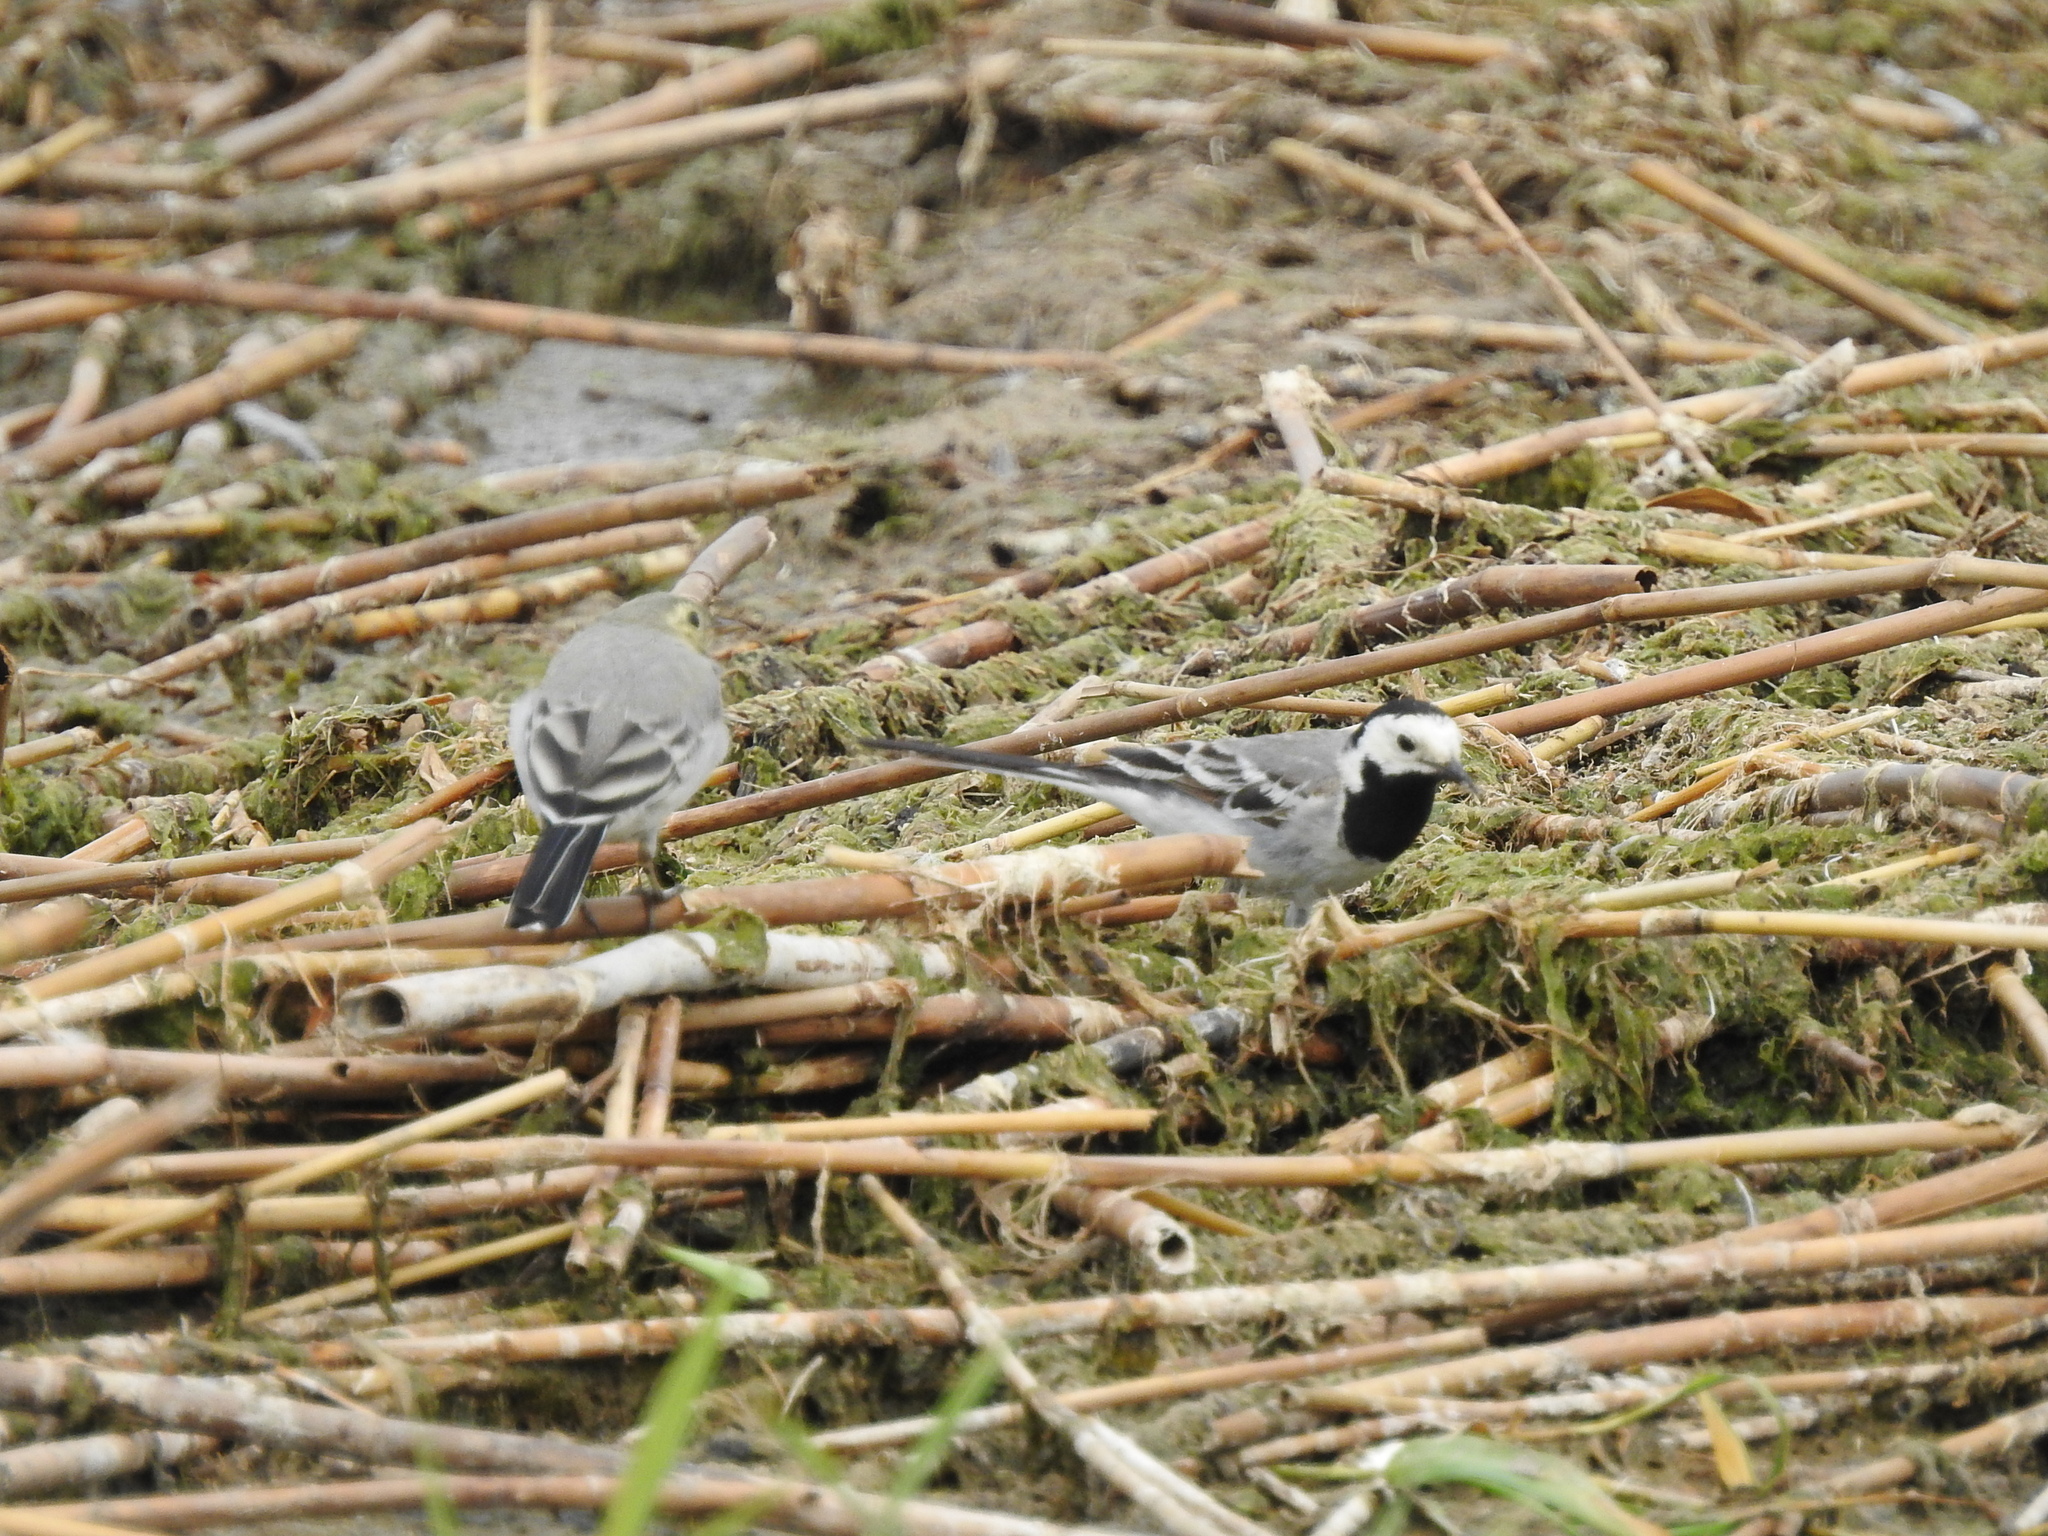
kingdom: Animalia
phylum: Chordata
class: Aves
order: Passeriformes
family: Motacillidae
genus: Motacilla
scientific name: Motacilla alba
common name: White wagtail
